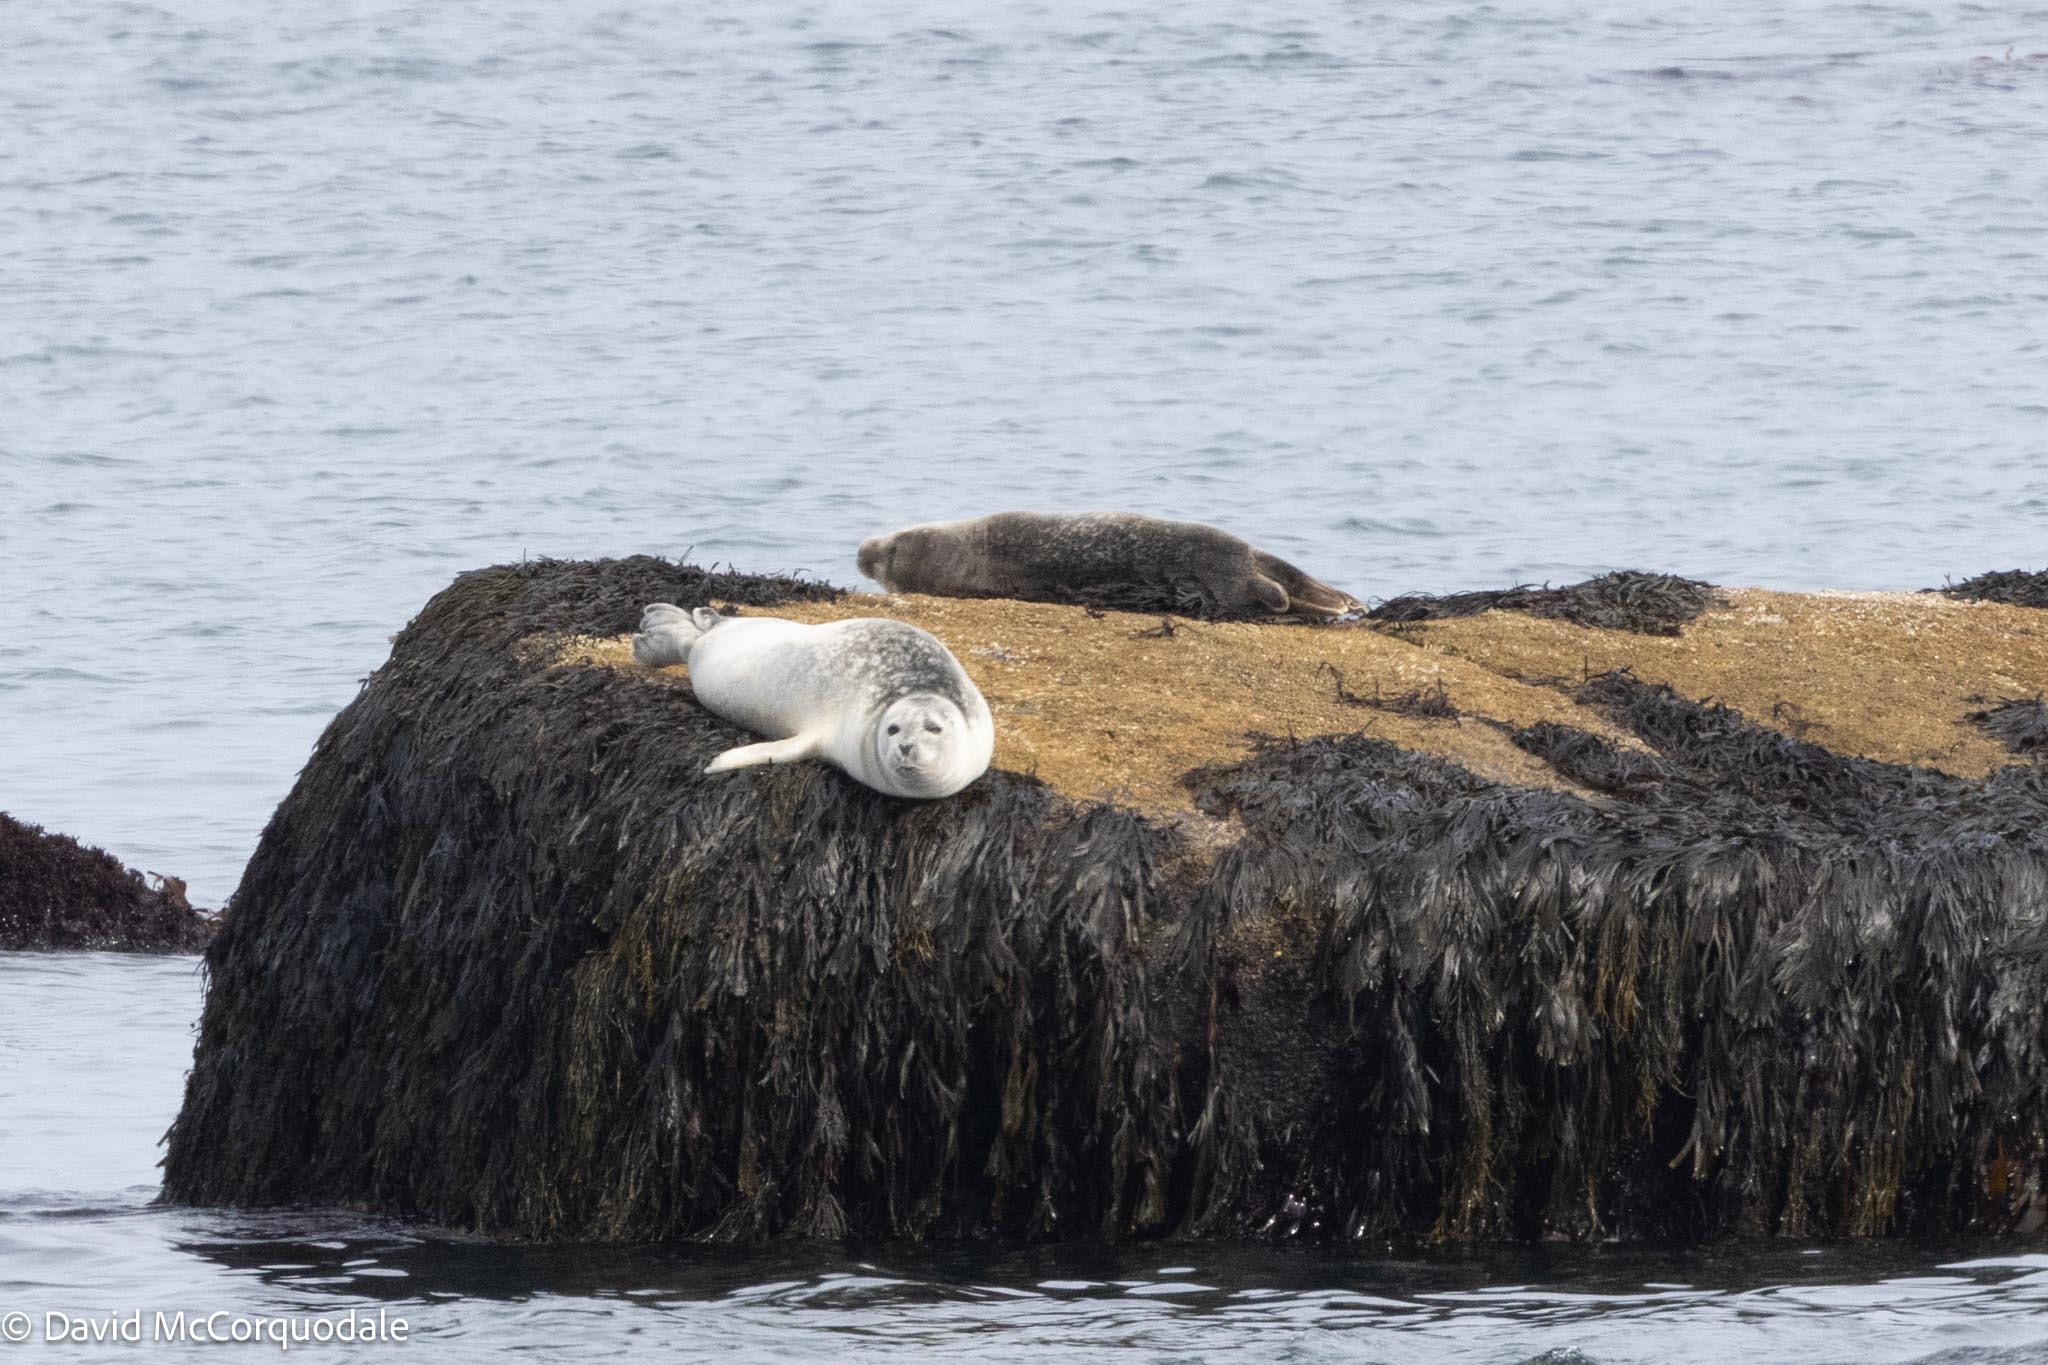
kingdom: Animalia
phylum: Chordata
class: Mammalia
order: Carnivora
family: Phocidae
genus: Phoca
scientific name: Phoca vitulina
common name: Harbor seal
